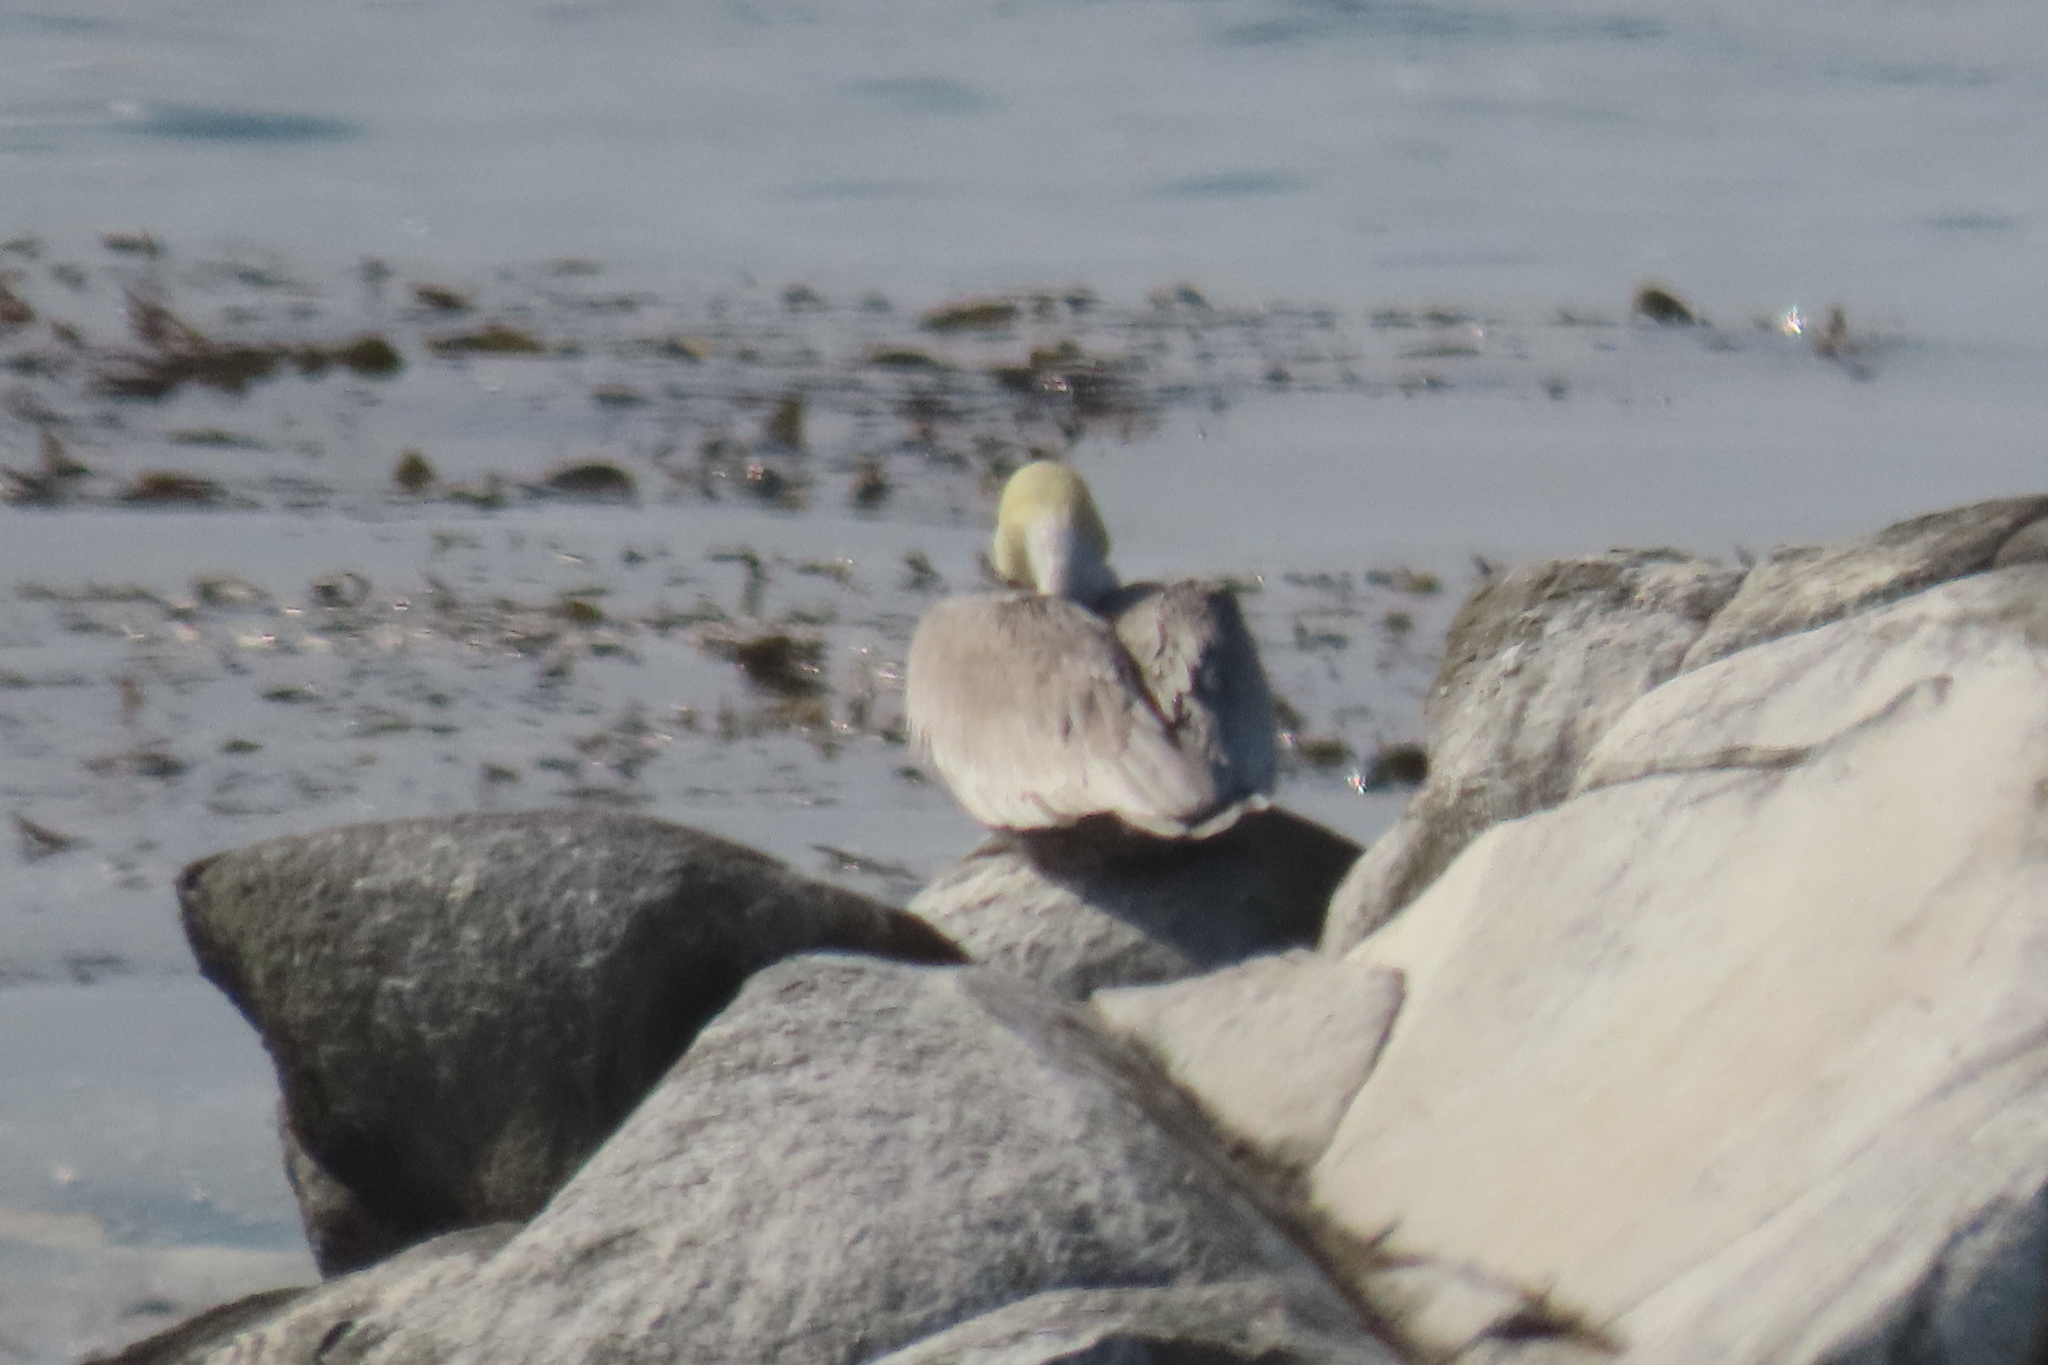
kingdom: Animalia
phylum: Chordata
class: Aves
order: Pelecaniformes
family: Pelecanidae
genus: Pelecanus
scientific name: Pelecanus occidentalis
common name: Brown pelican
